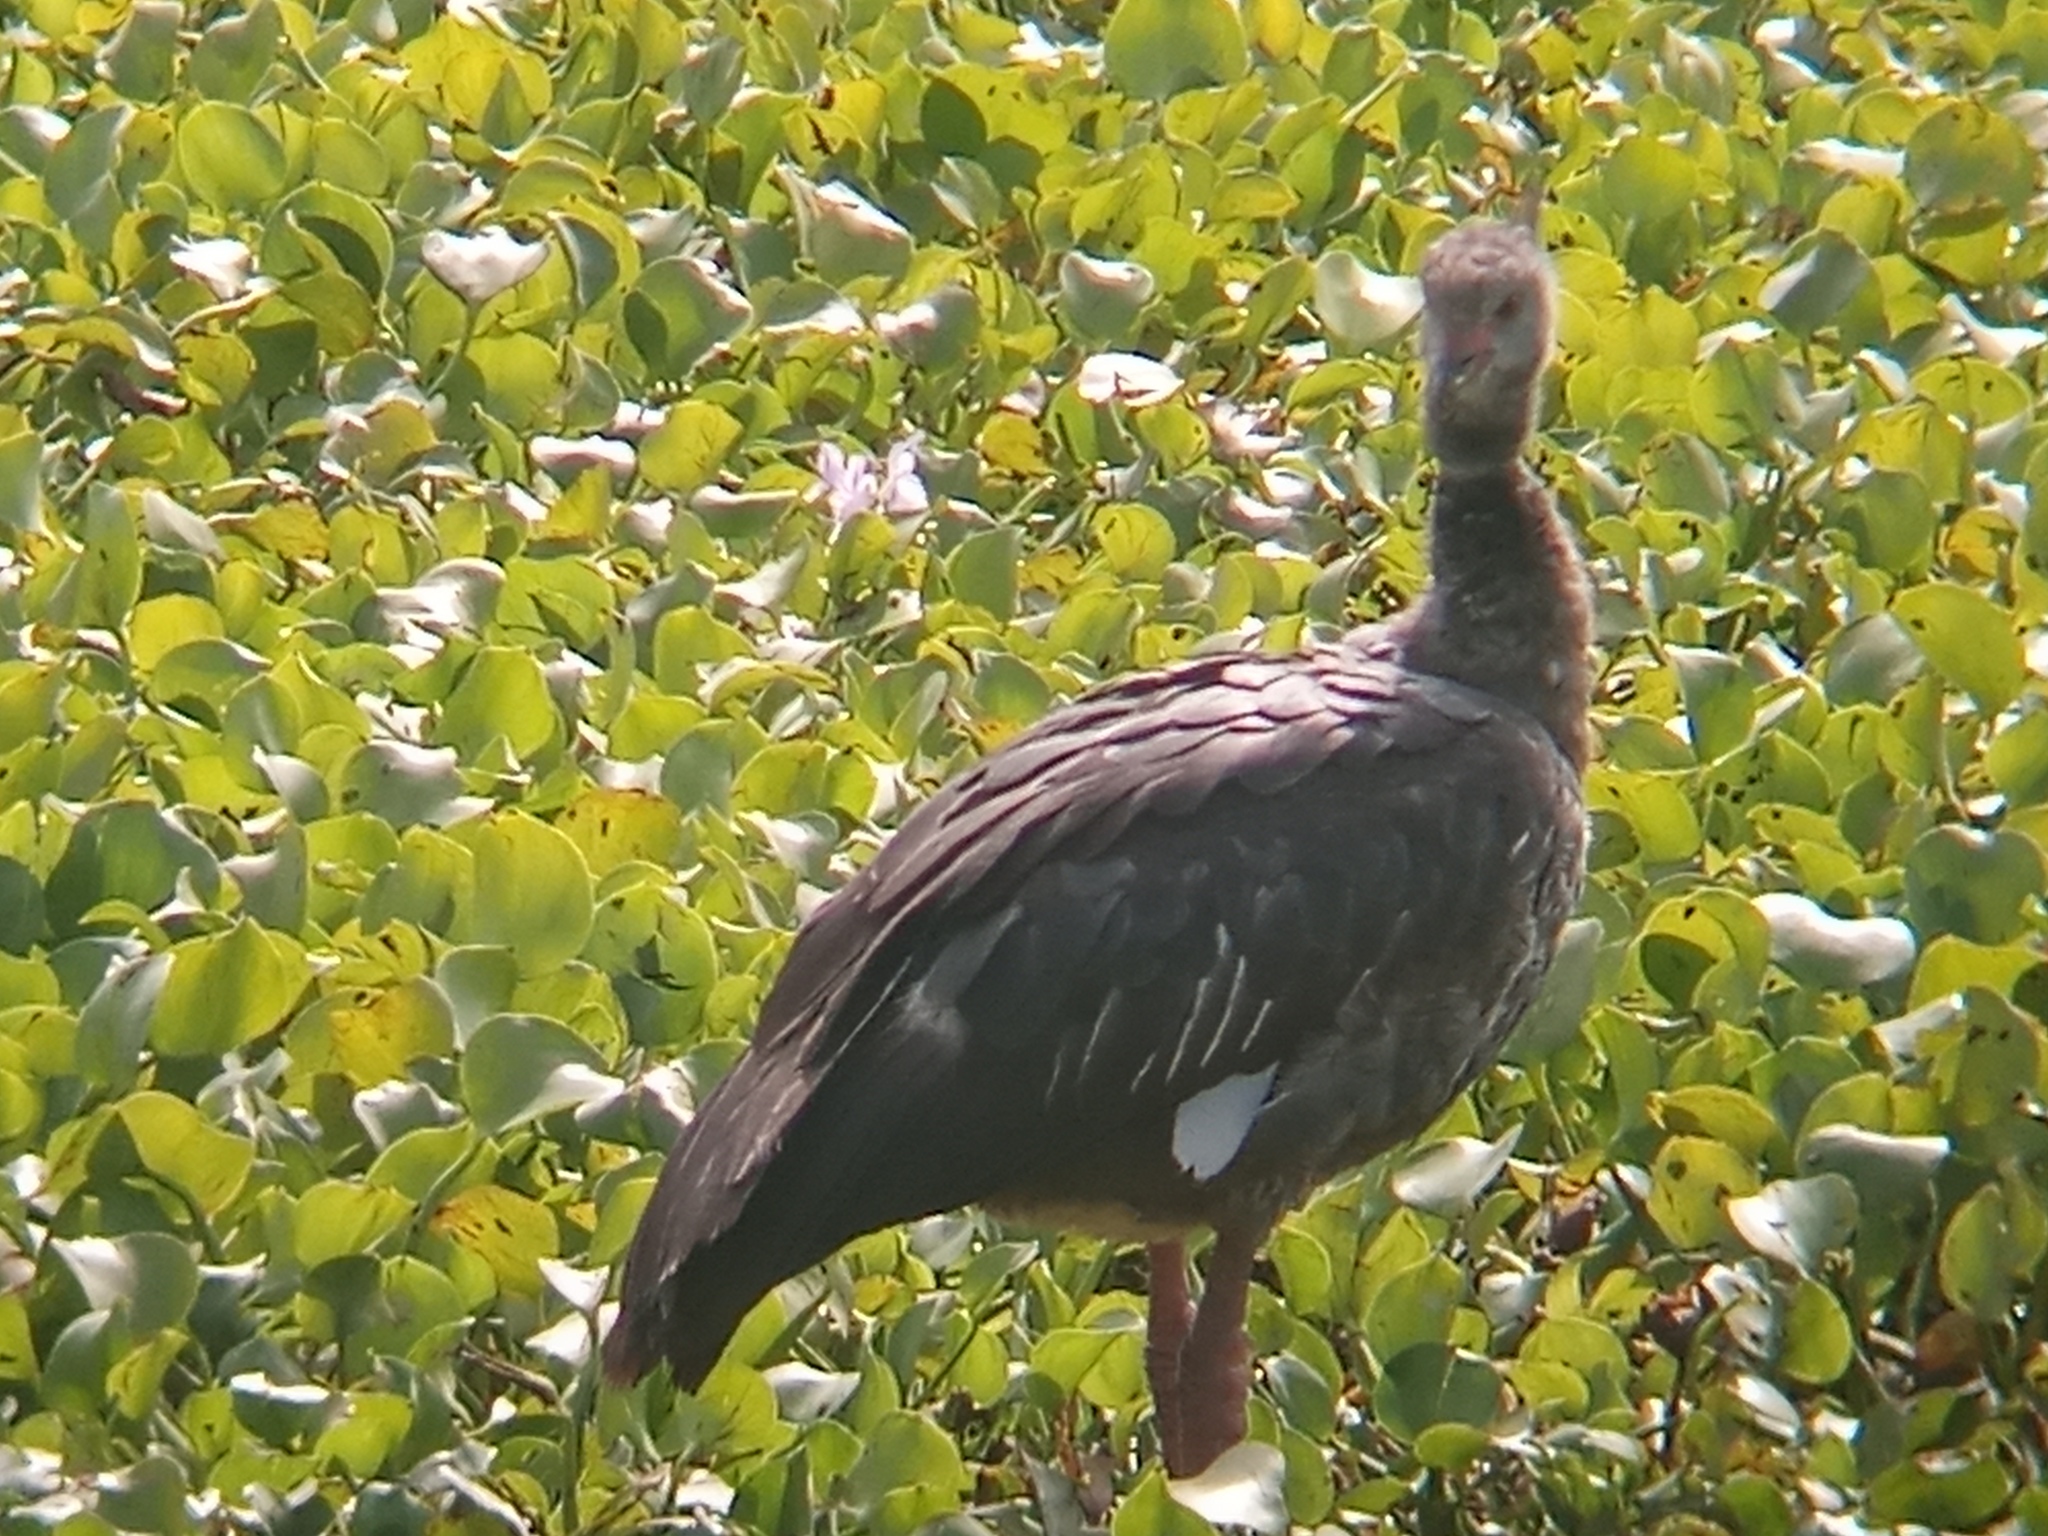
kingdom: Animalia
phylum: Chordata
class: Aves
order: Anseriformes
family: Anhimidae
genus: Chauna
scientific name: Chauna torquata
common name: Southern screamer
